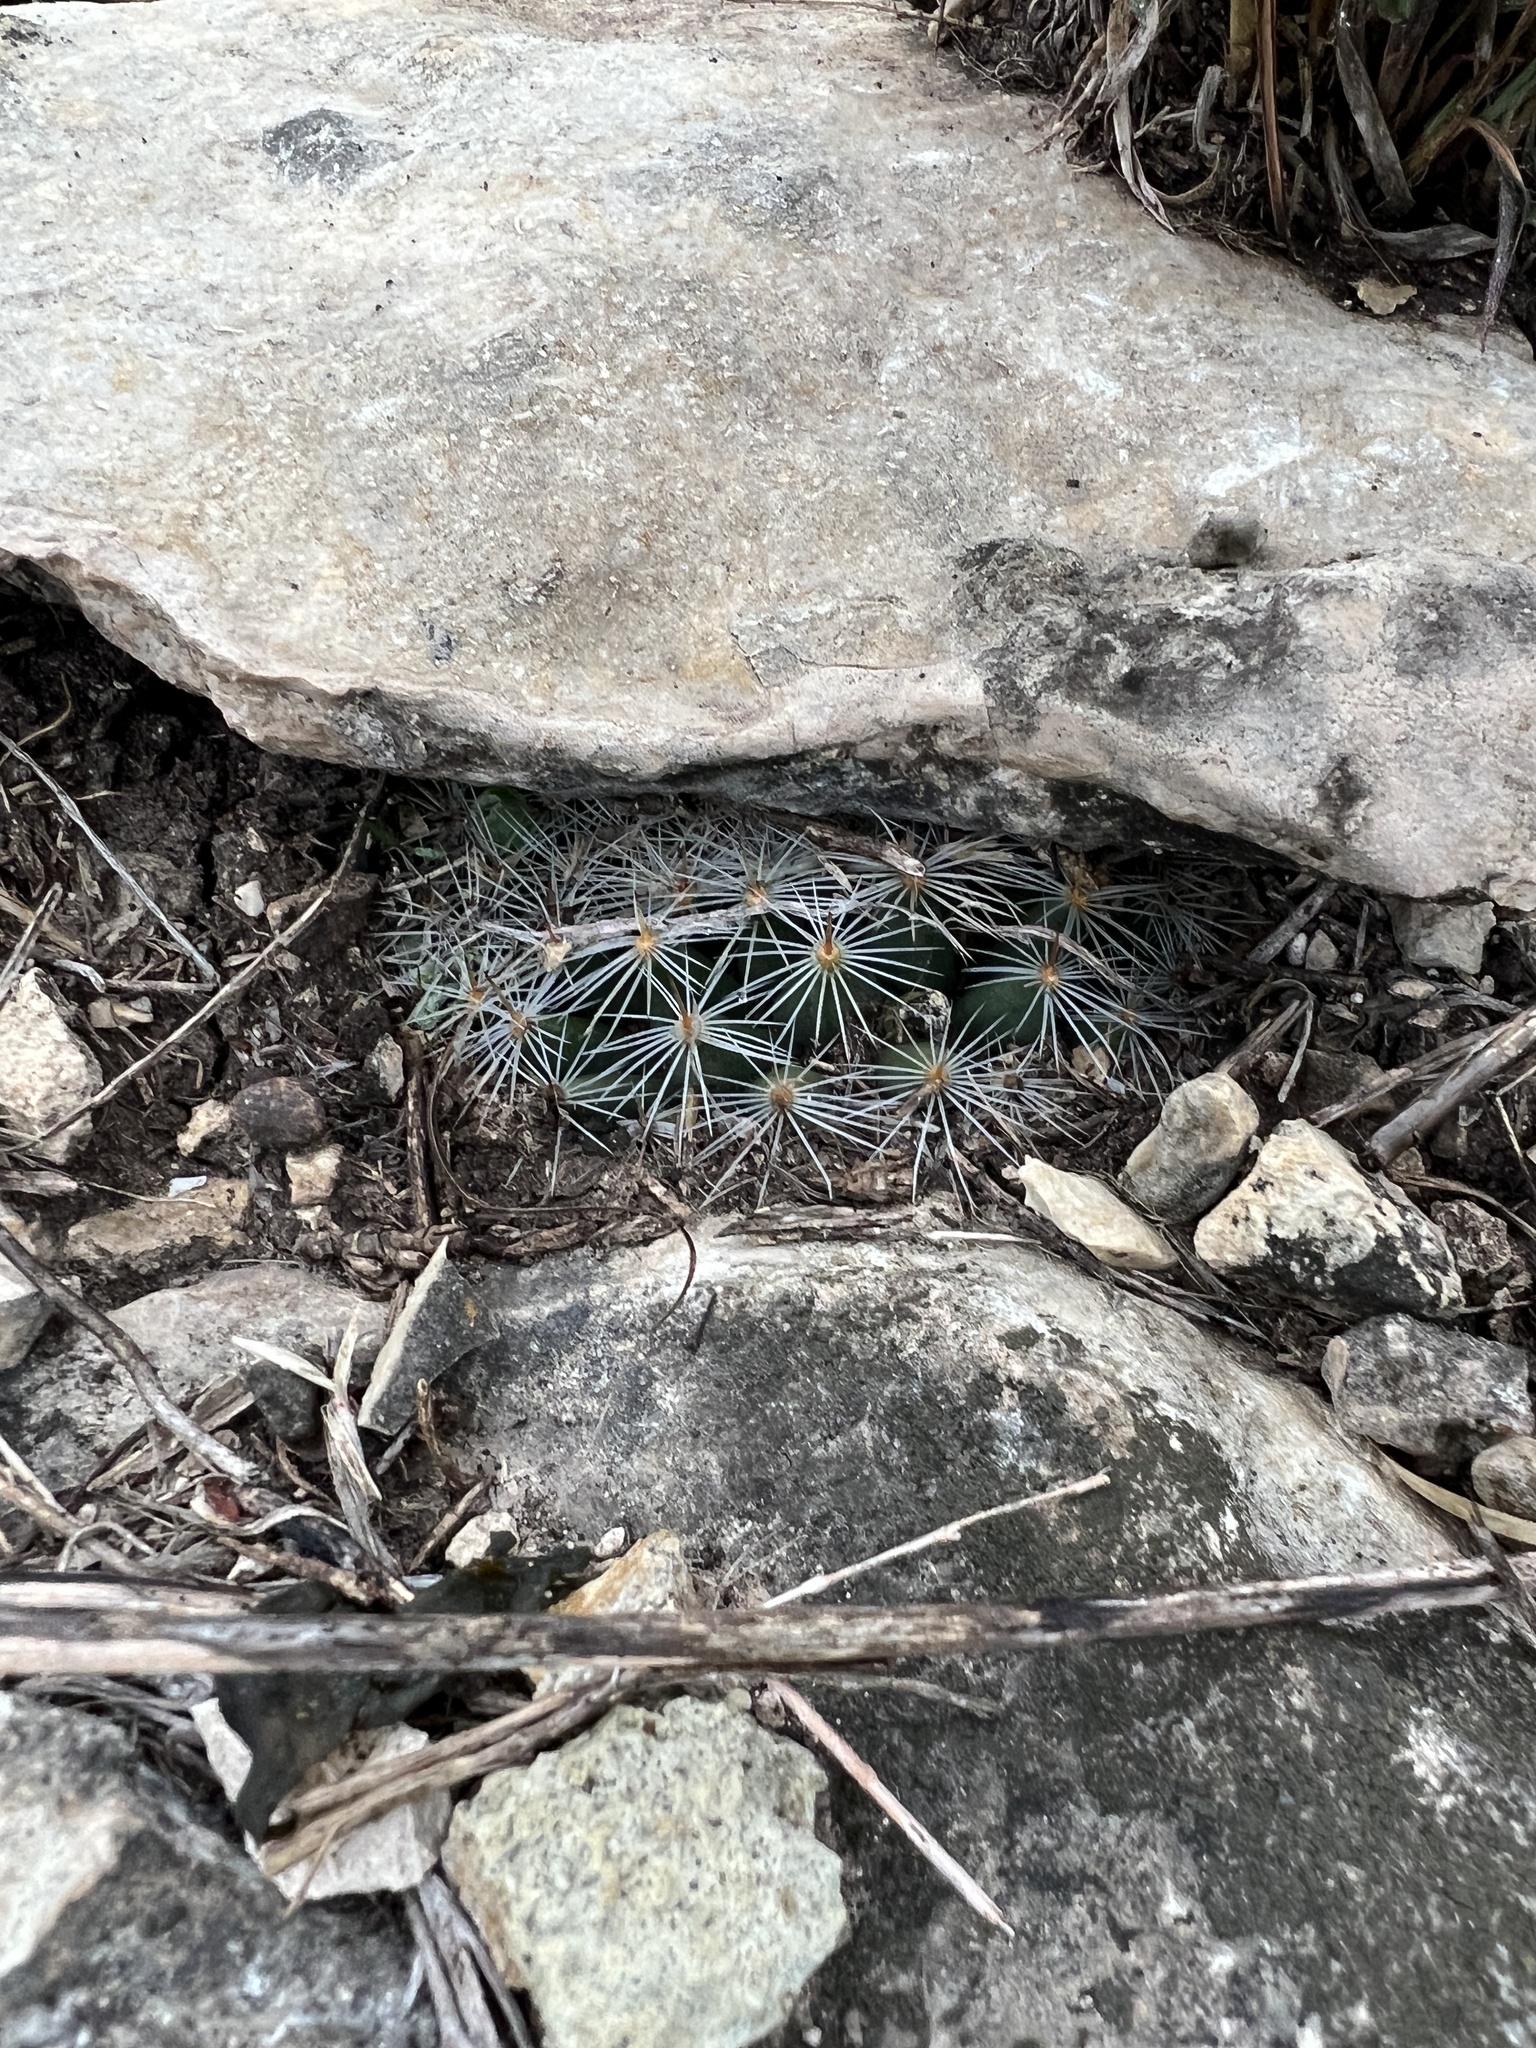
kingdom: Plantae
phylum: Tracheophyta
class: Magnoliopsida
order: Caryophyllales
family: Cactaceae
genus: Mammillaria
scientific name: Mammillaria heyderi
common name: Little nipple cactus
